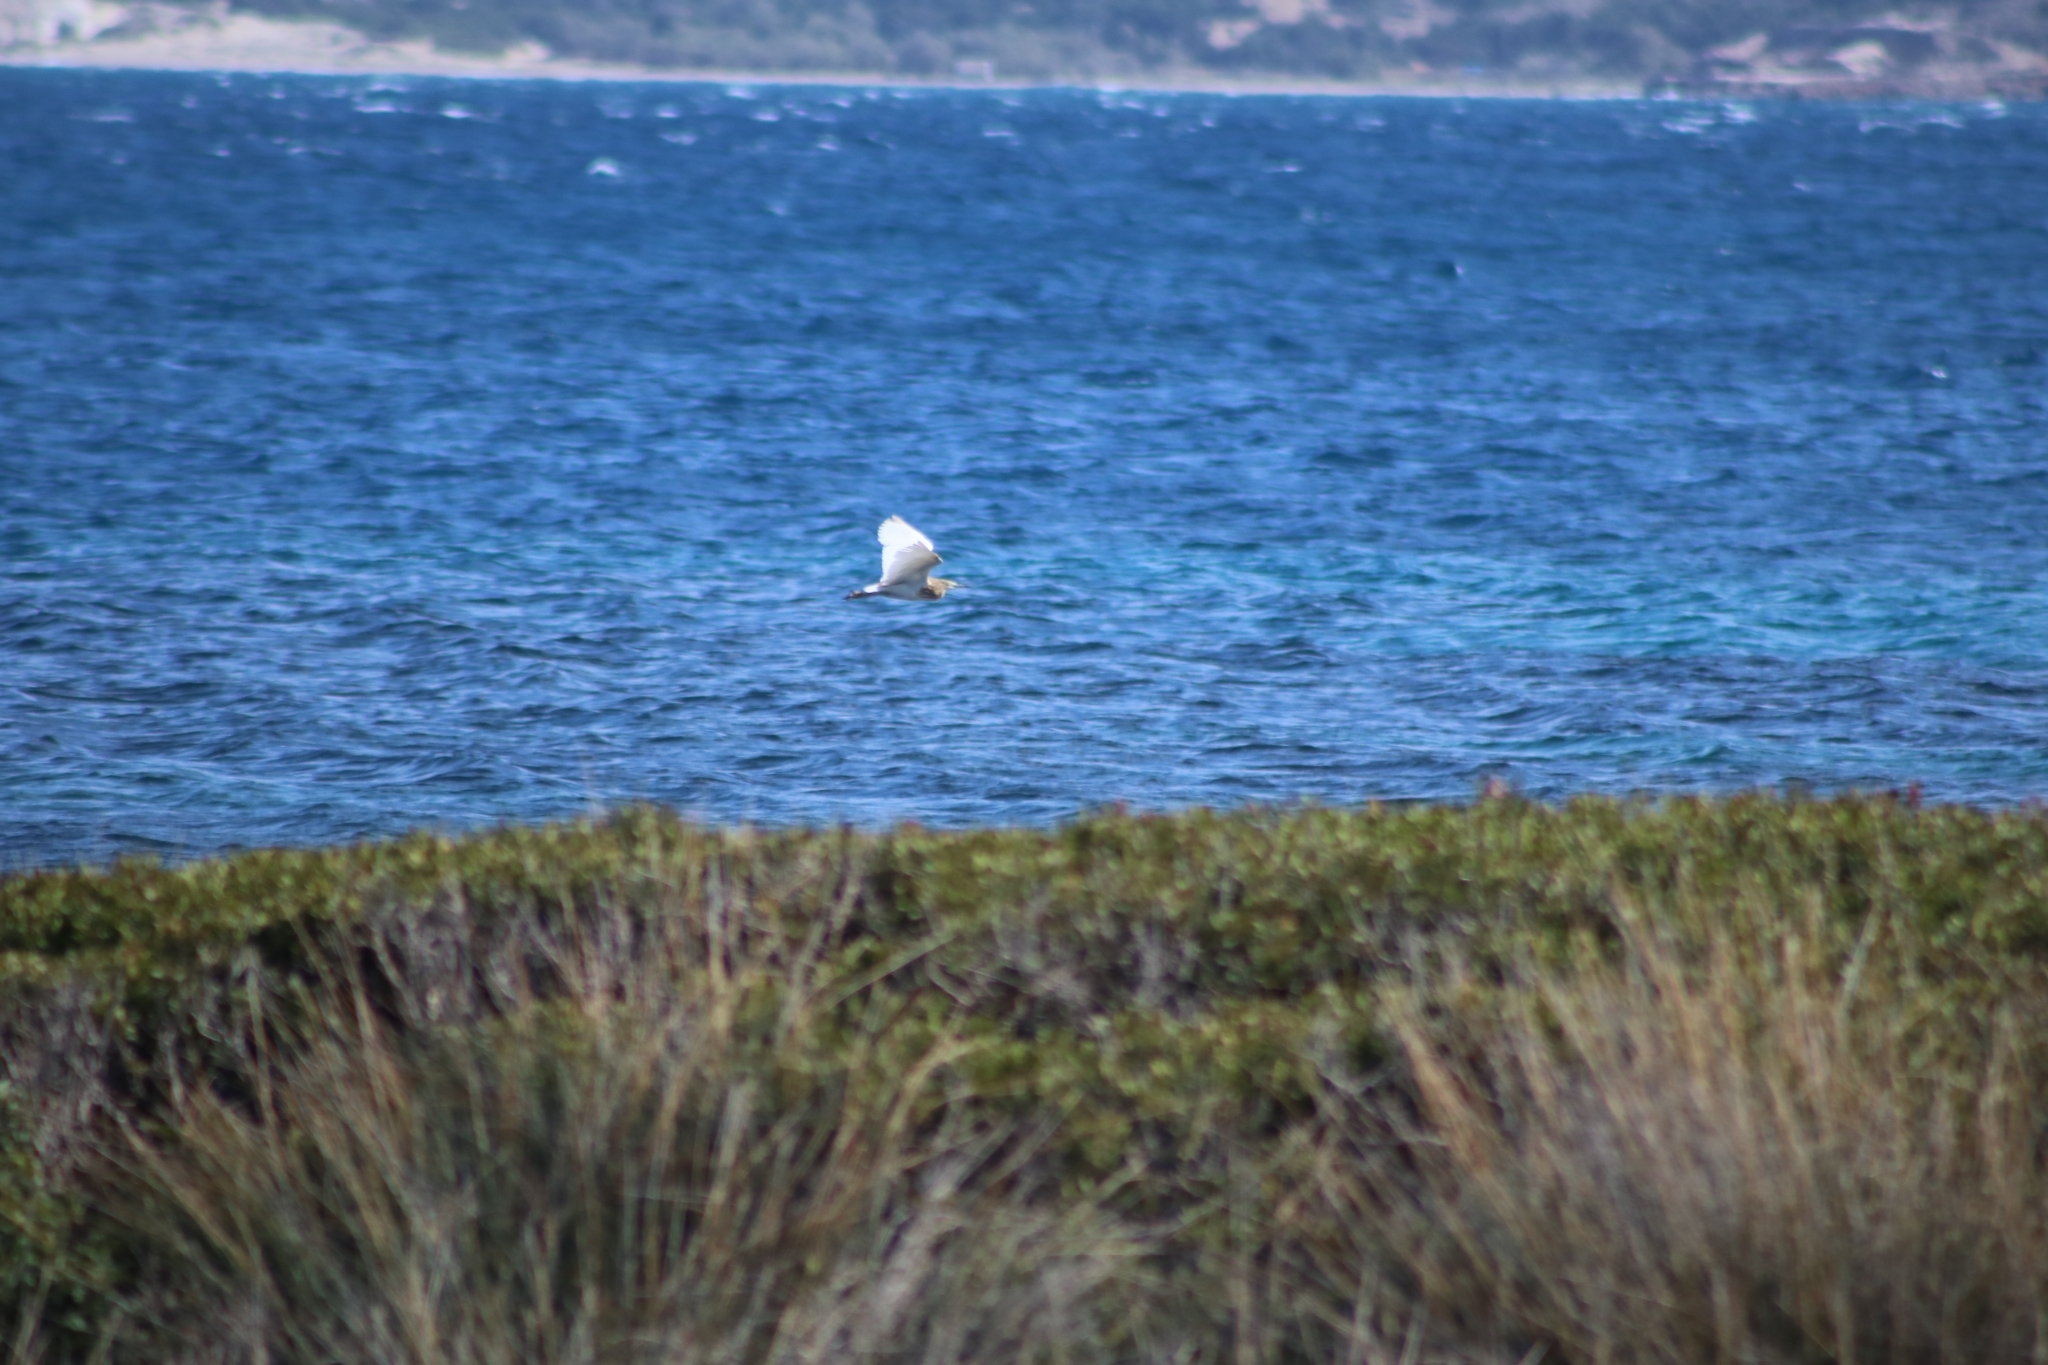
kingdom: Animalia
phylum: Chordata
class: Aves
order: Pelecaniformes
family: Ardeidae
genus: Ardeola
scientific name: Ardeola ralloides
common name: Squacco heron
